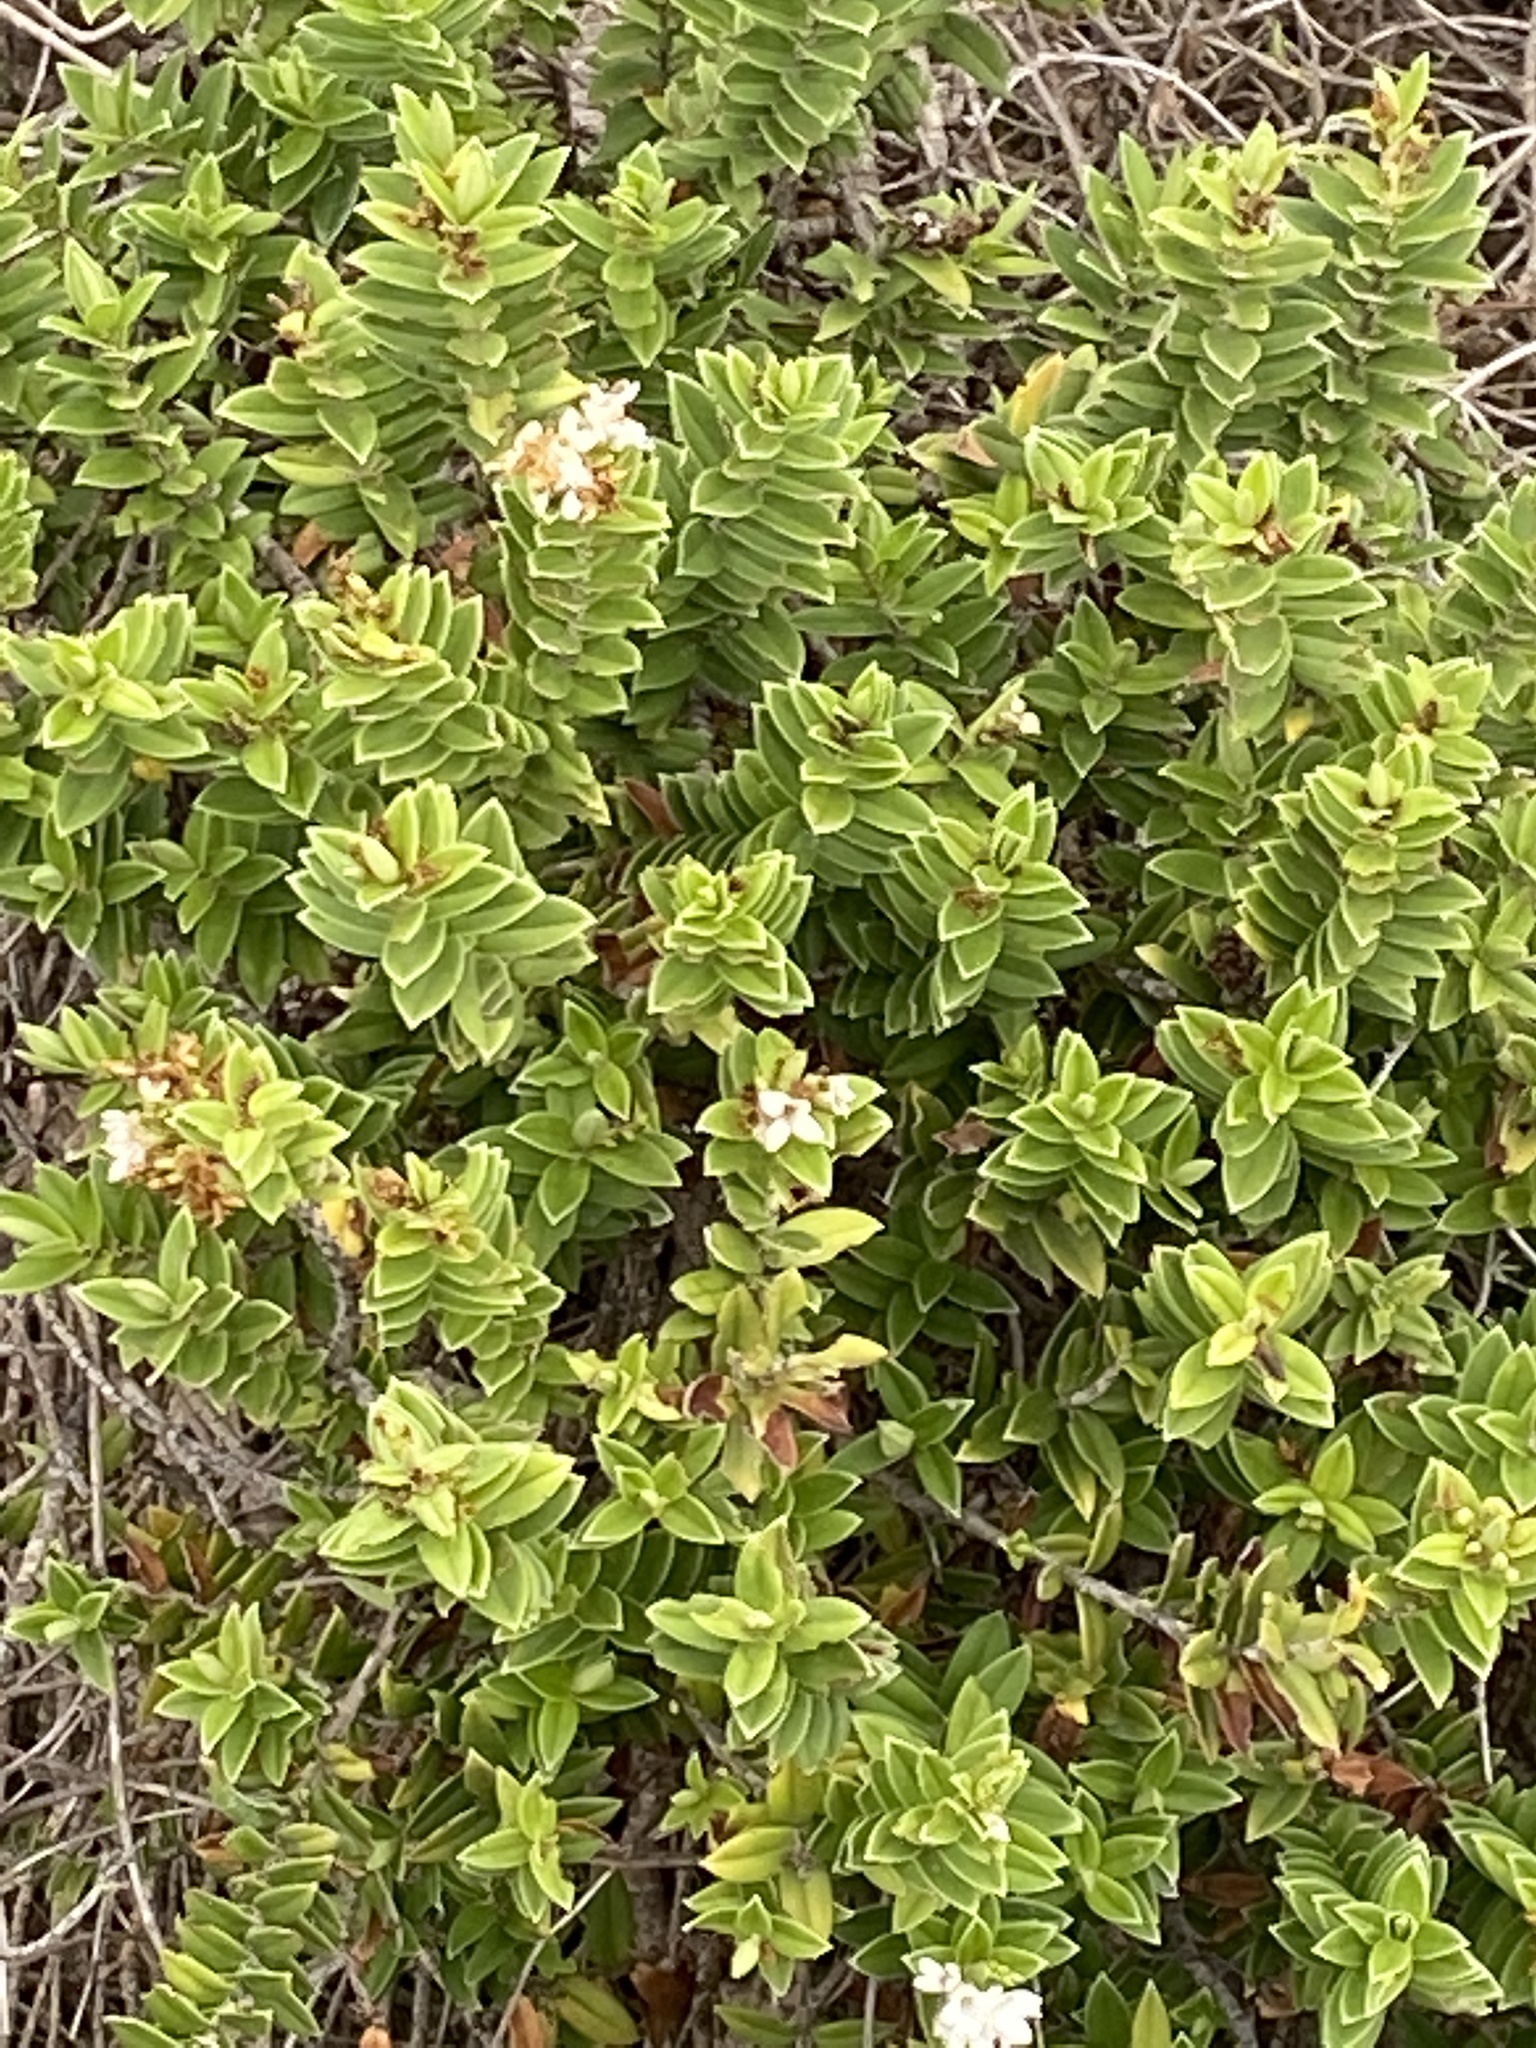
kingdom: Plantae
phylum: Tracheophyta
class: Magnoliopsida
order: Lamiales
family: Plantaginaceae
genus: Veronica
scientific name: Veronica elliptica
